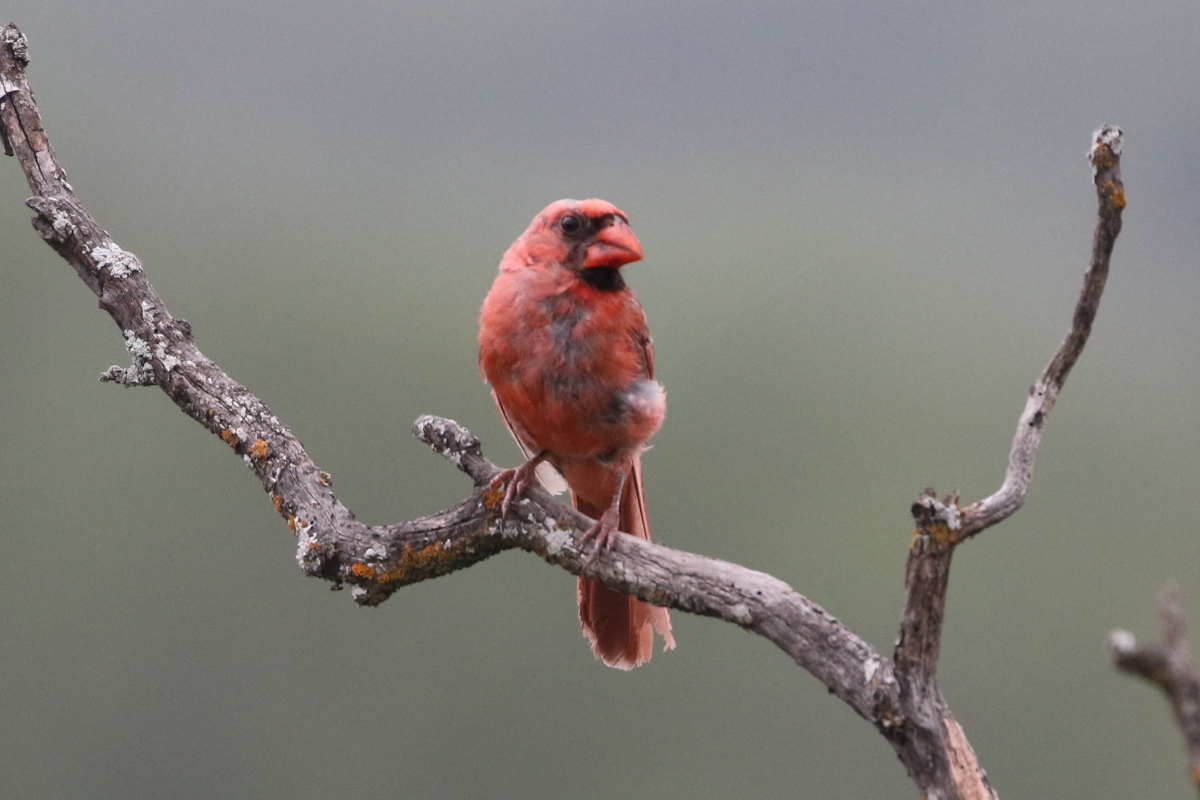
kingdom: Animalia
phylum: Chordata
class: Aves
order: Passeriformes
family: Cardinalidae
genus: Cardinalis
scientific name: Cardinalis cardinalis
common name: Northern cardinal
